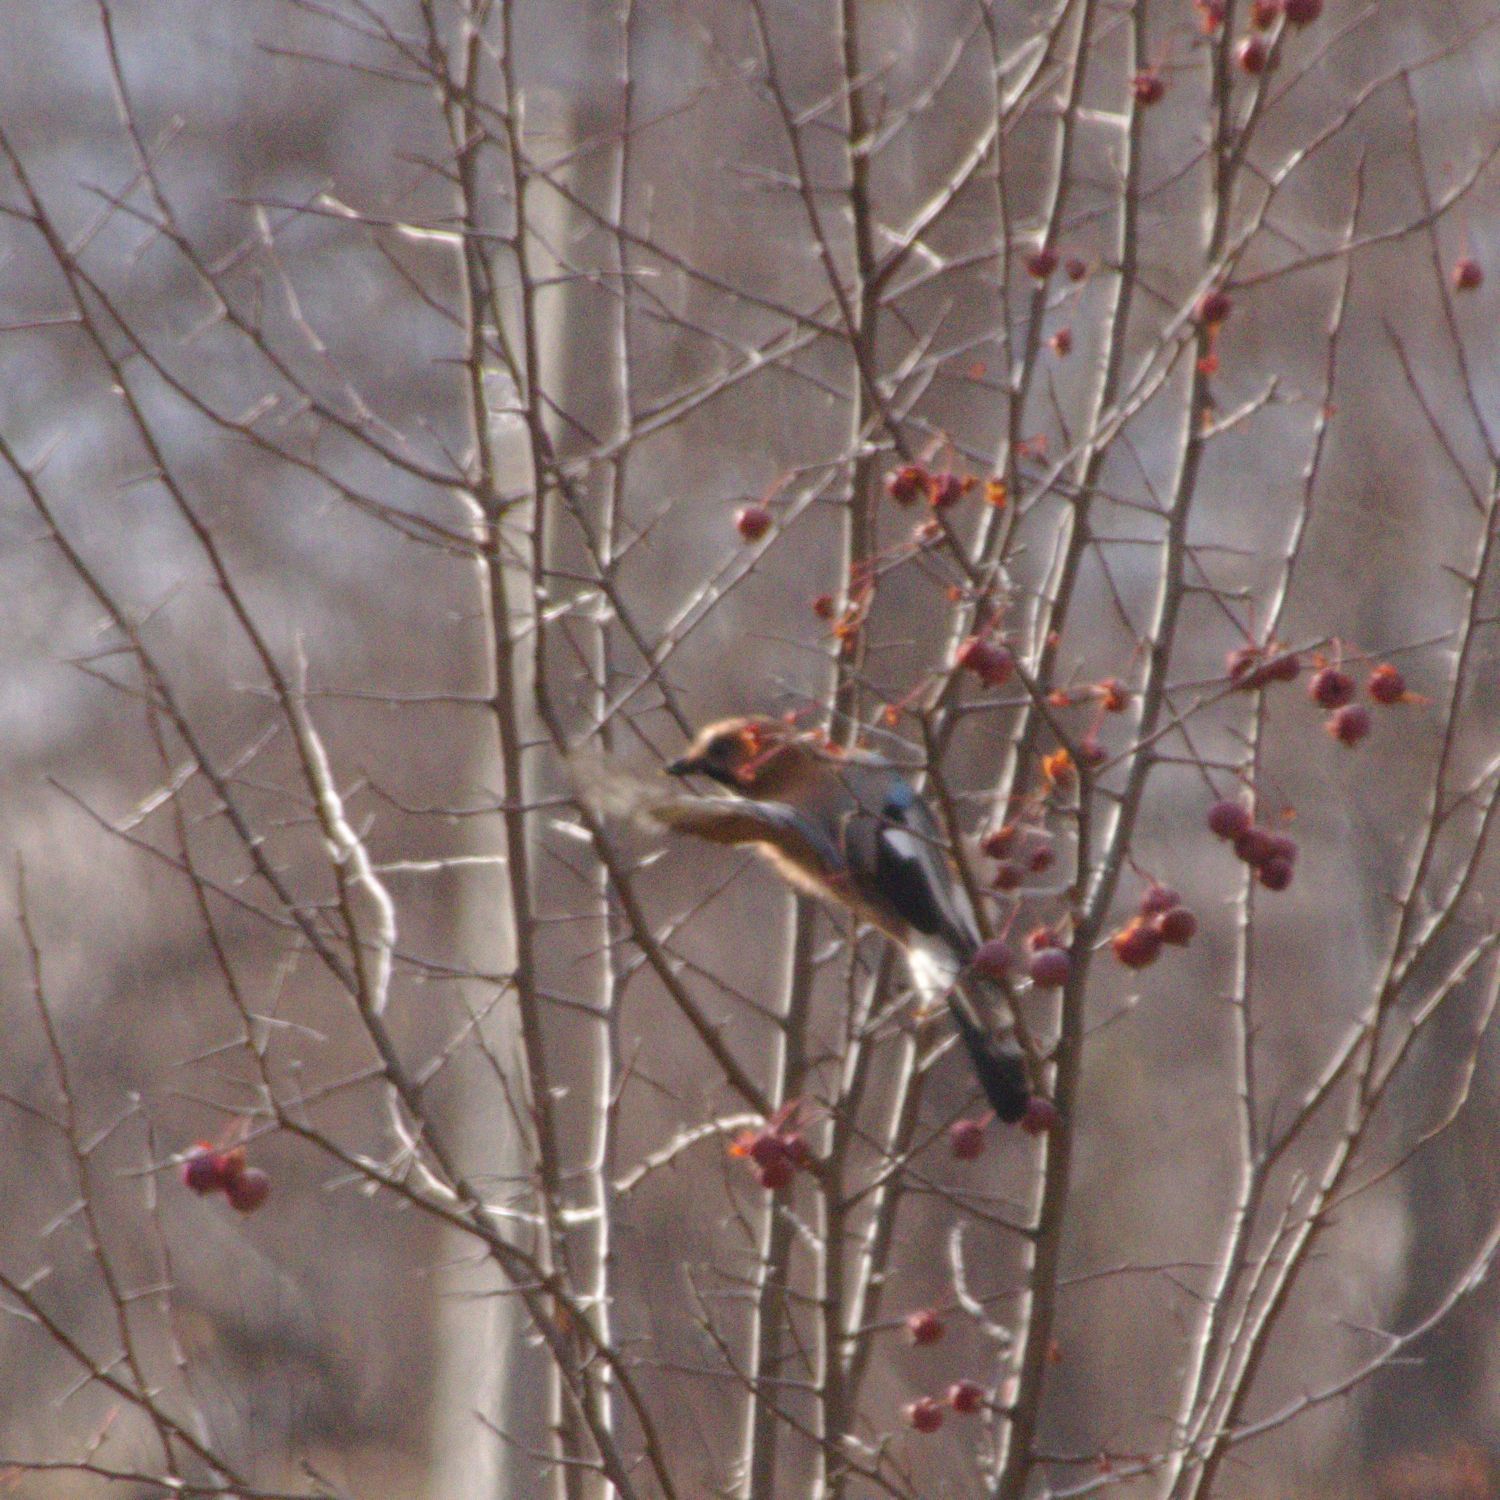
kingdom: Animalia
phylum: Chordata
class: Aves
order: Passeriformes
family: Corvidae
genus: Garrulus
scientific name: Garrulus glandarius
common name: Eurasian jay
